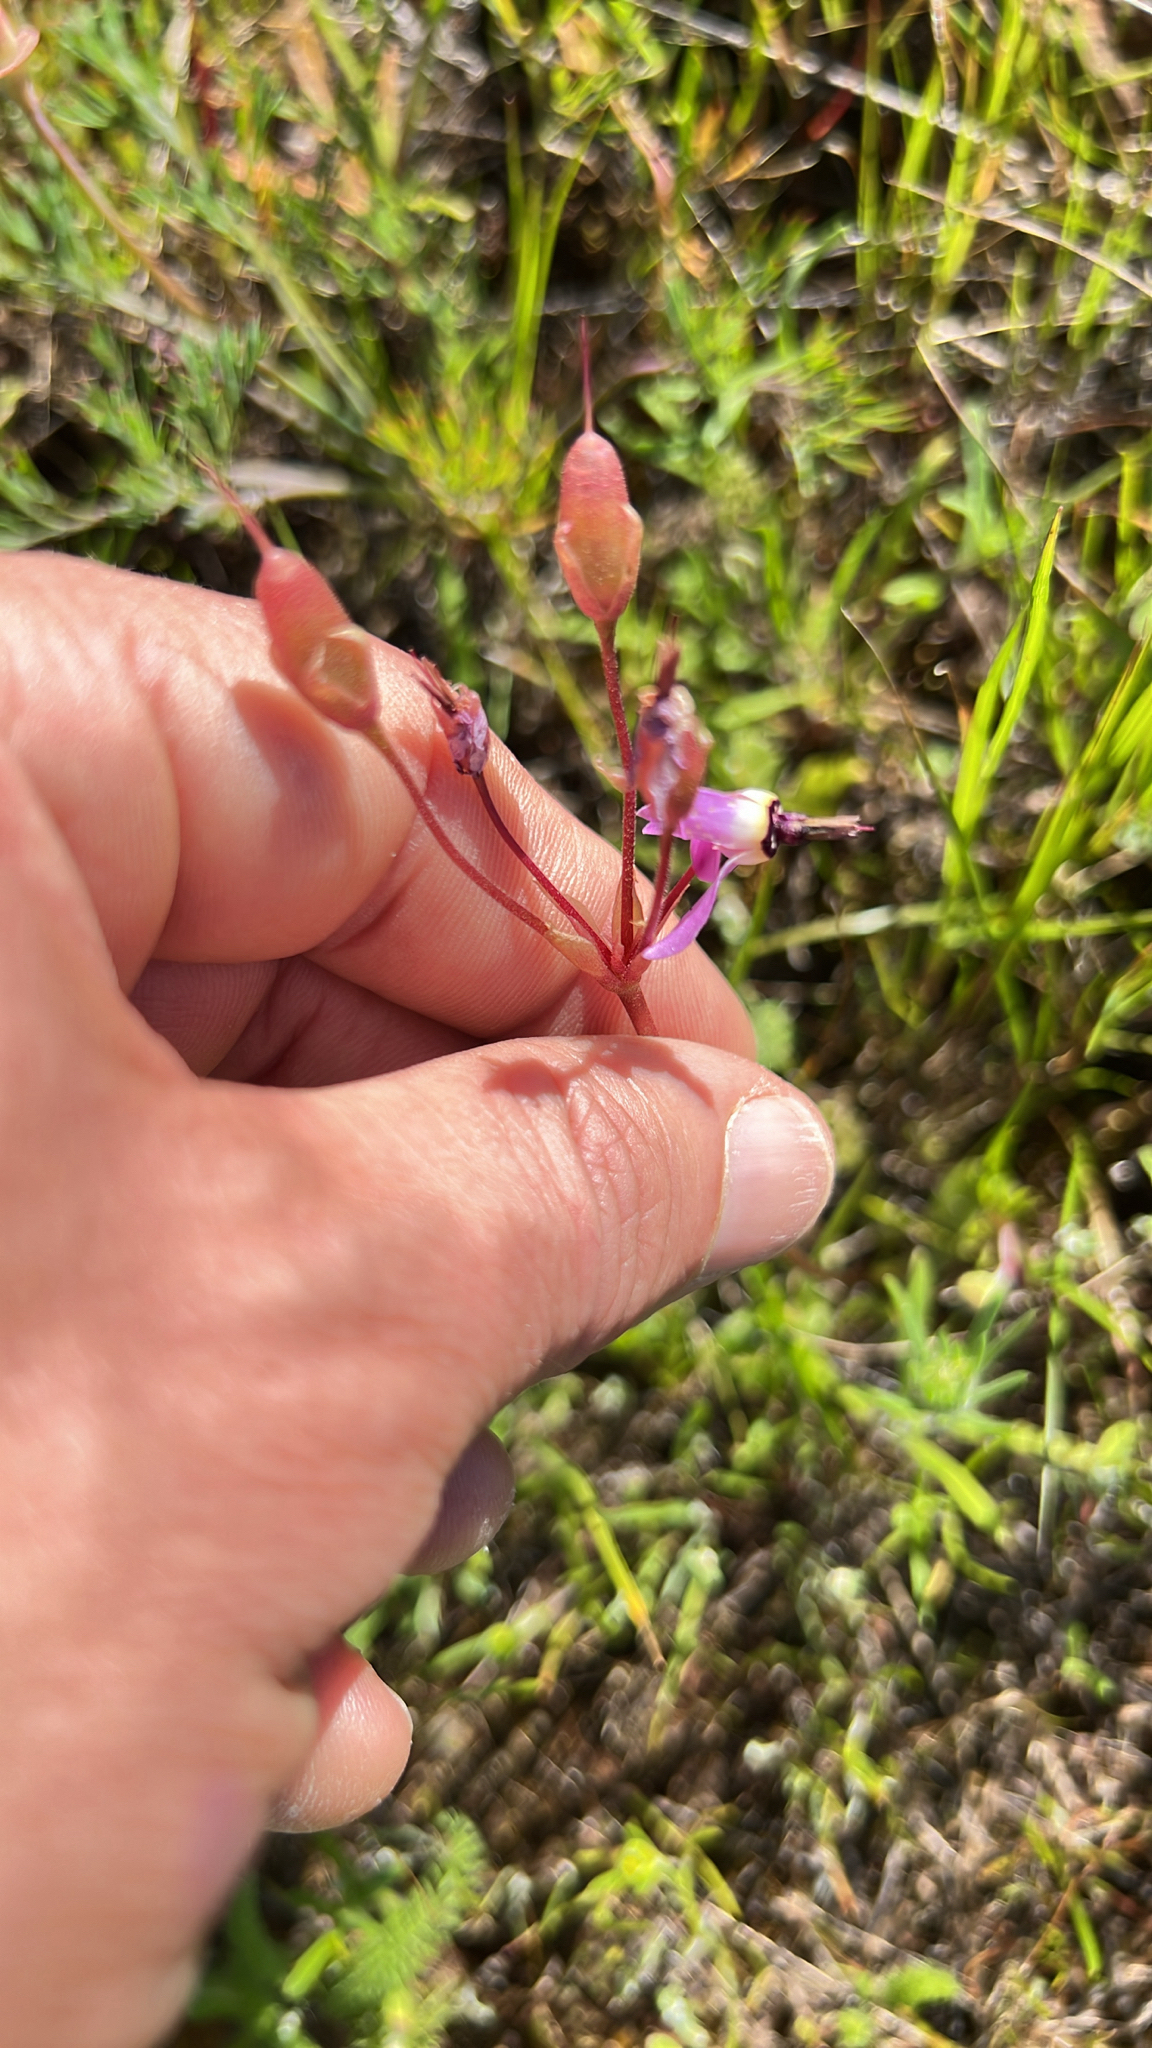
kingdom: Plantae
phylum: Tracheophyta
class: Magnoliopsida
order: Ericales
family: Primulaceae
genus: Dodecatheon
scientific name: Dodecatheon hendersonii
